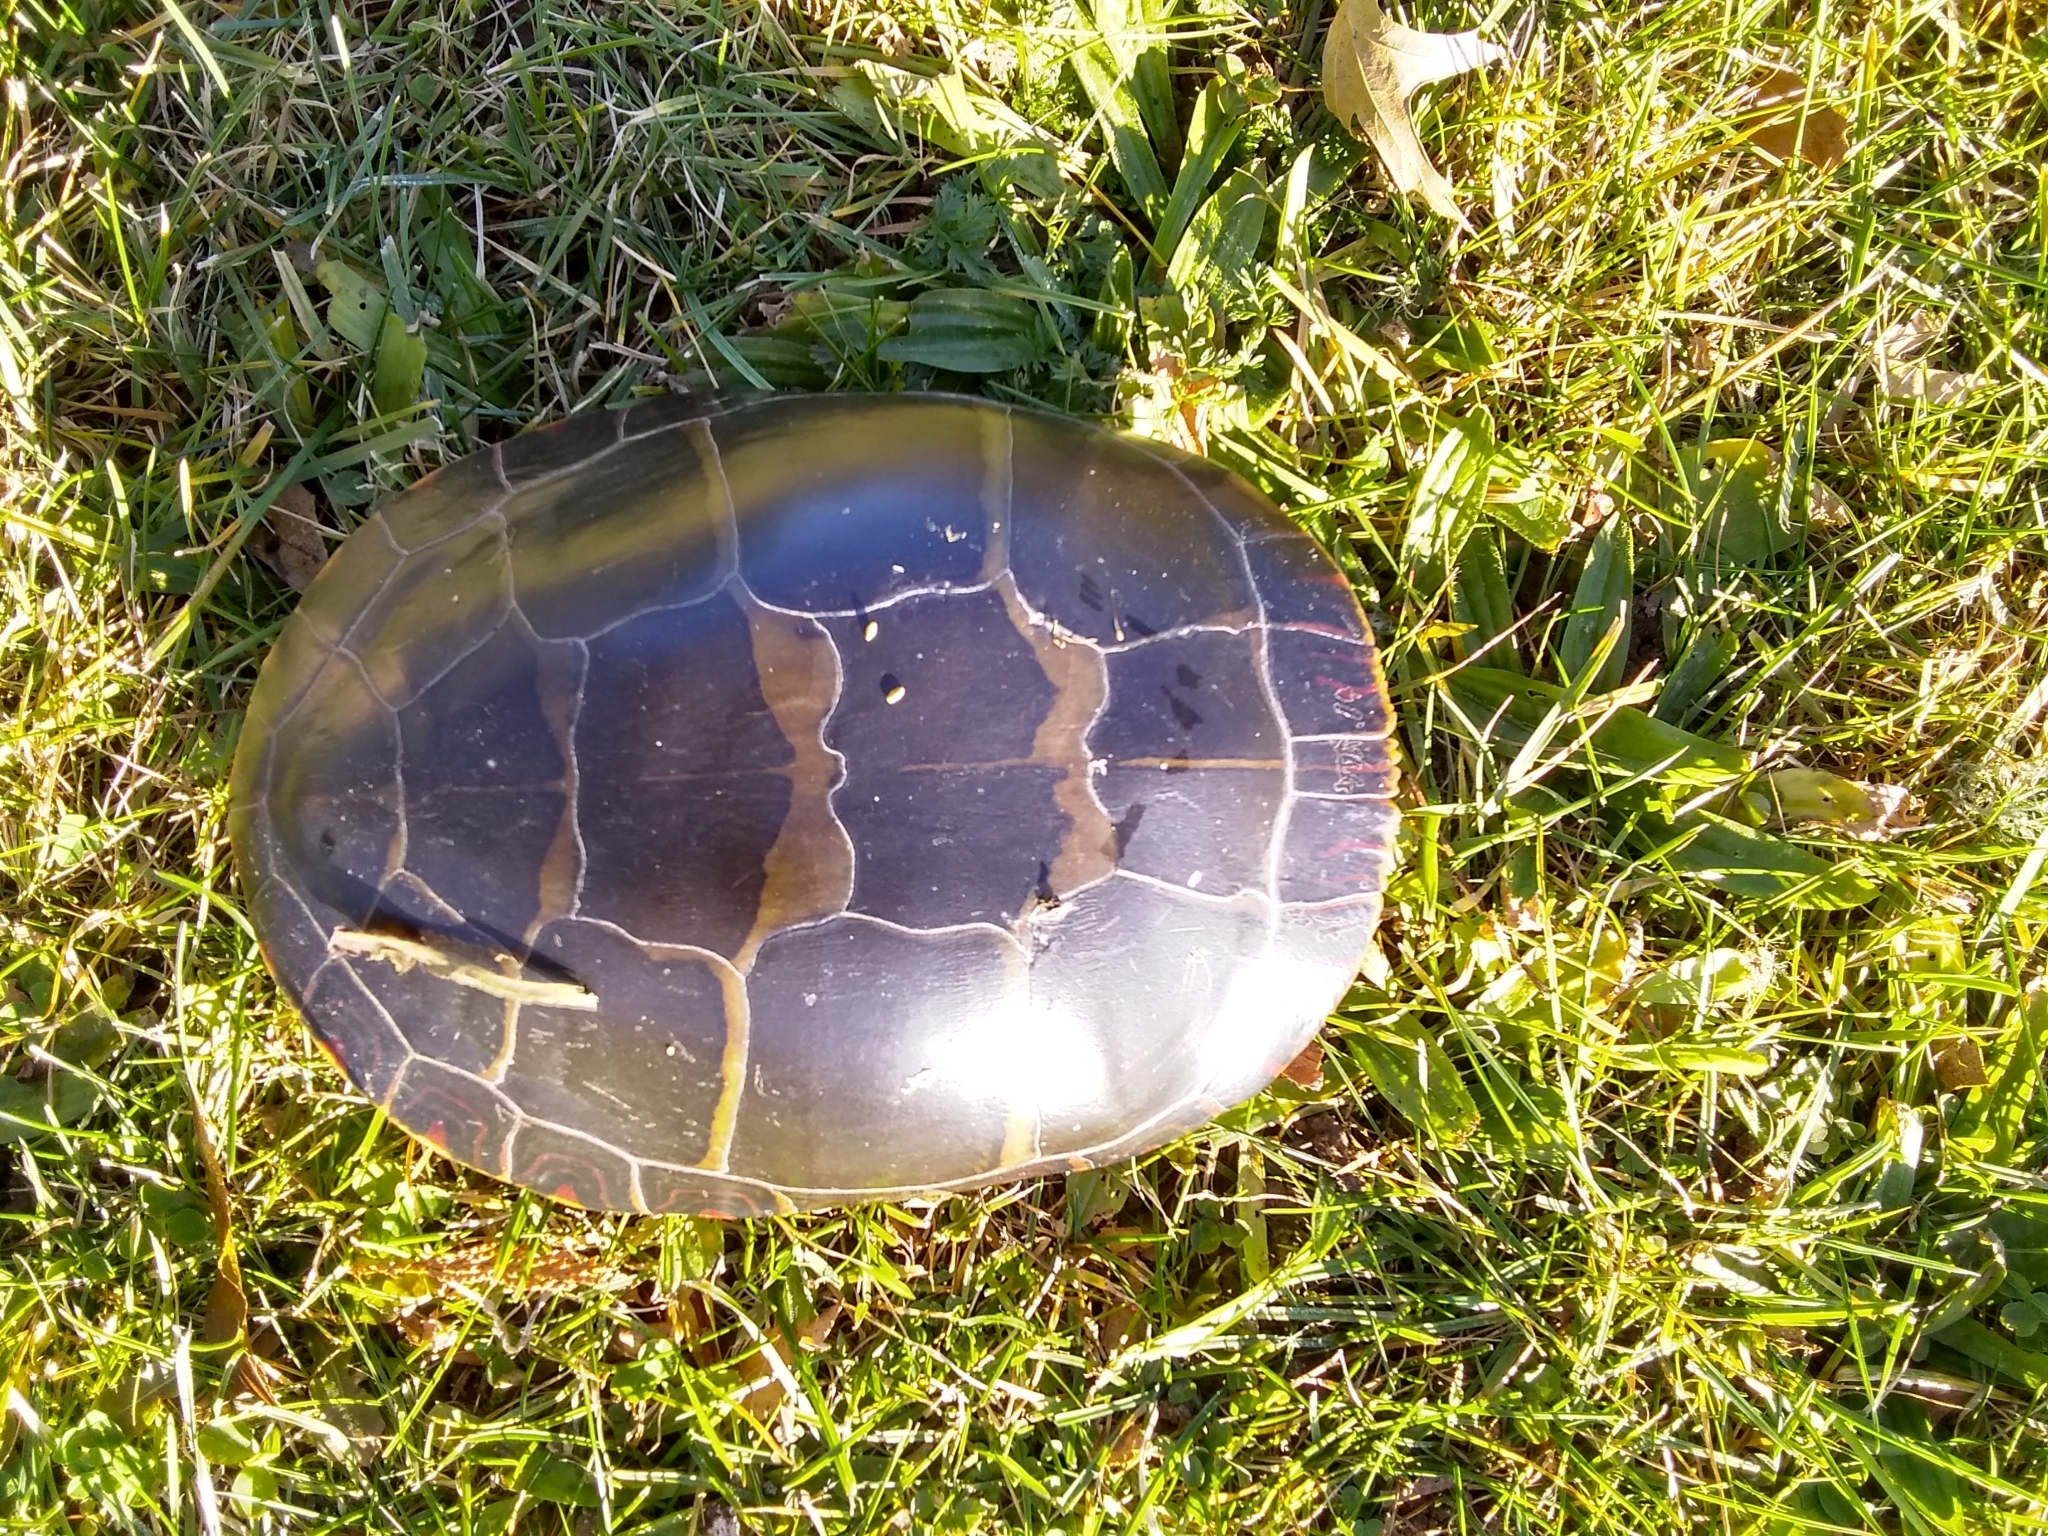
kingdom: Animalia
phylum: Chordata
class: Testudines
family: Emydidae
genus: Chrysemys
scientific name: Chrysemys picta
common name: Painted turtle
